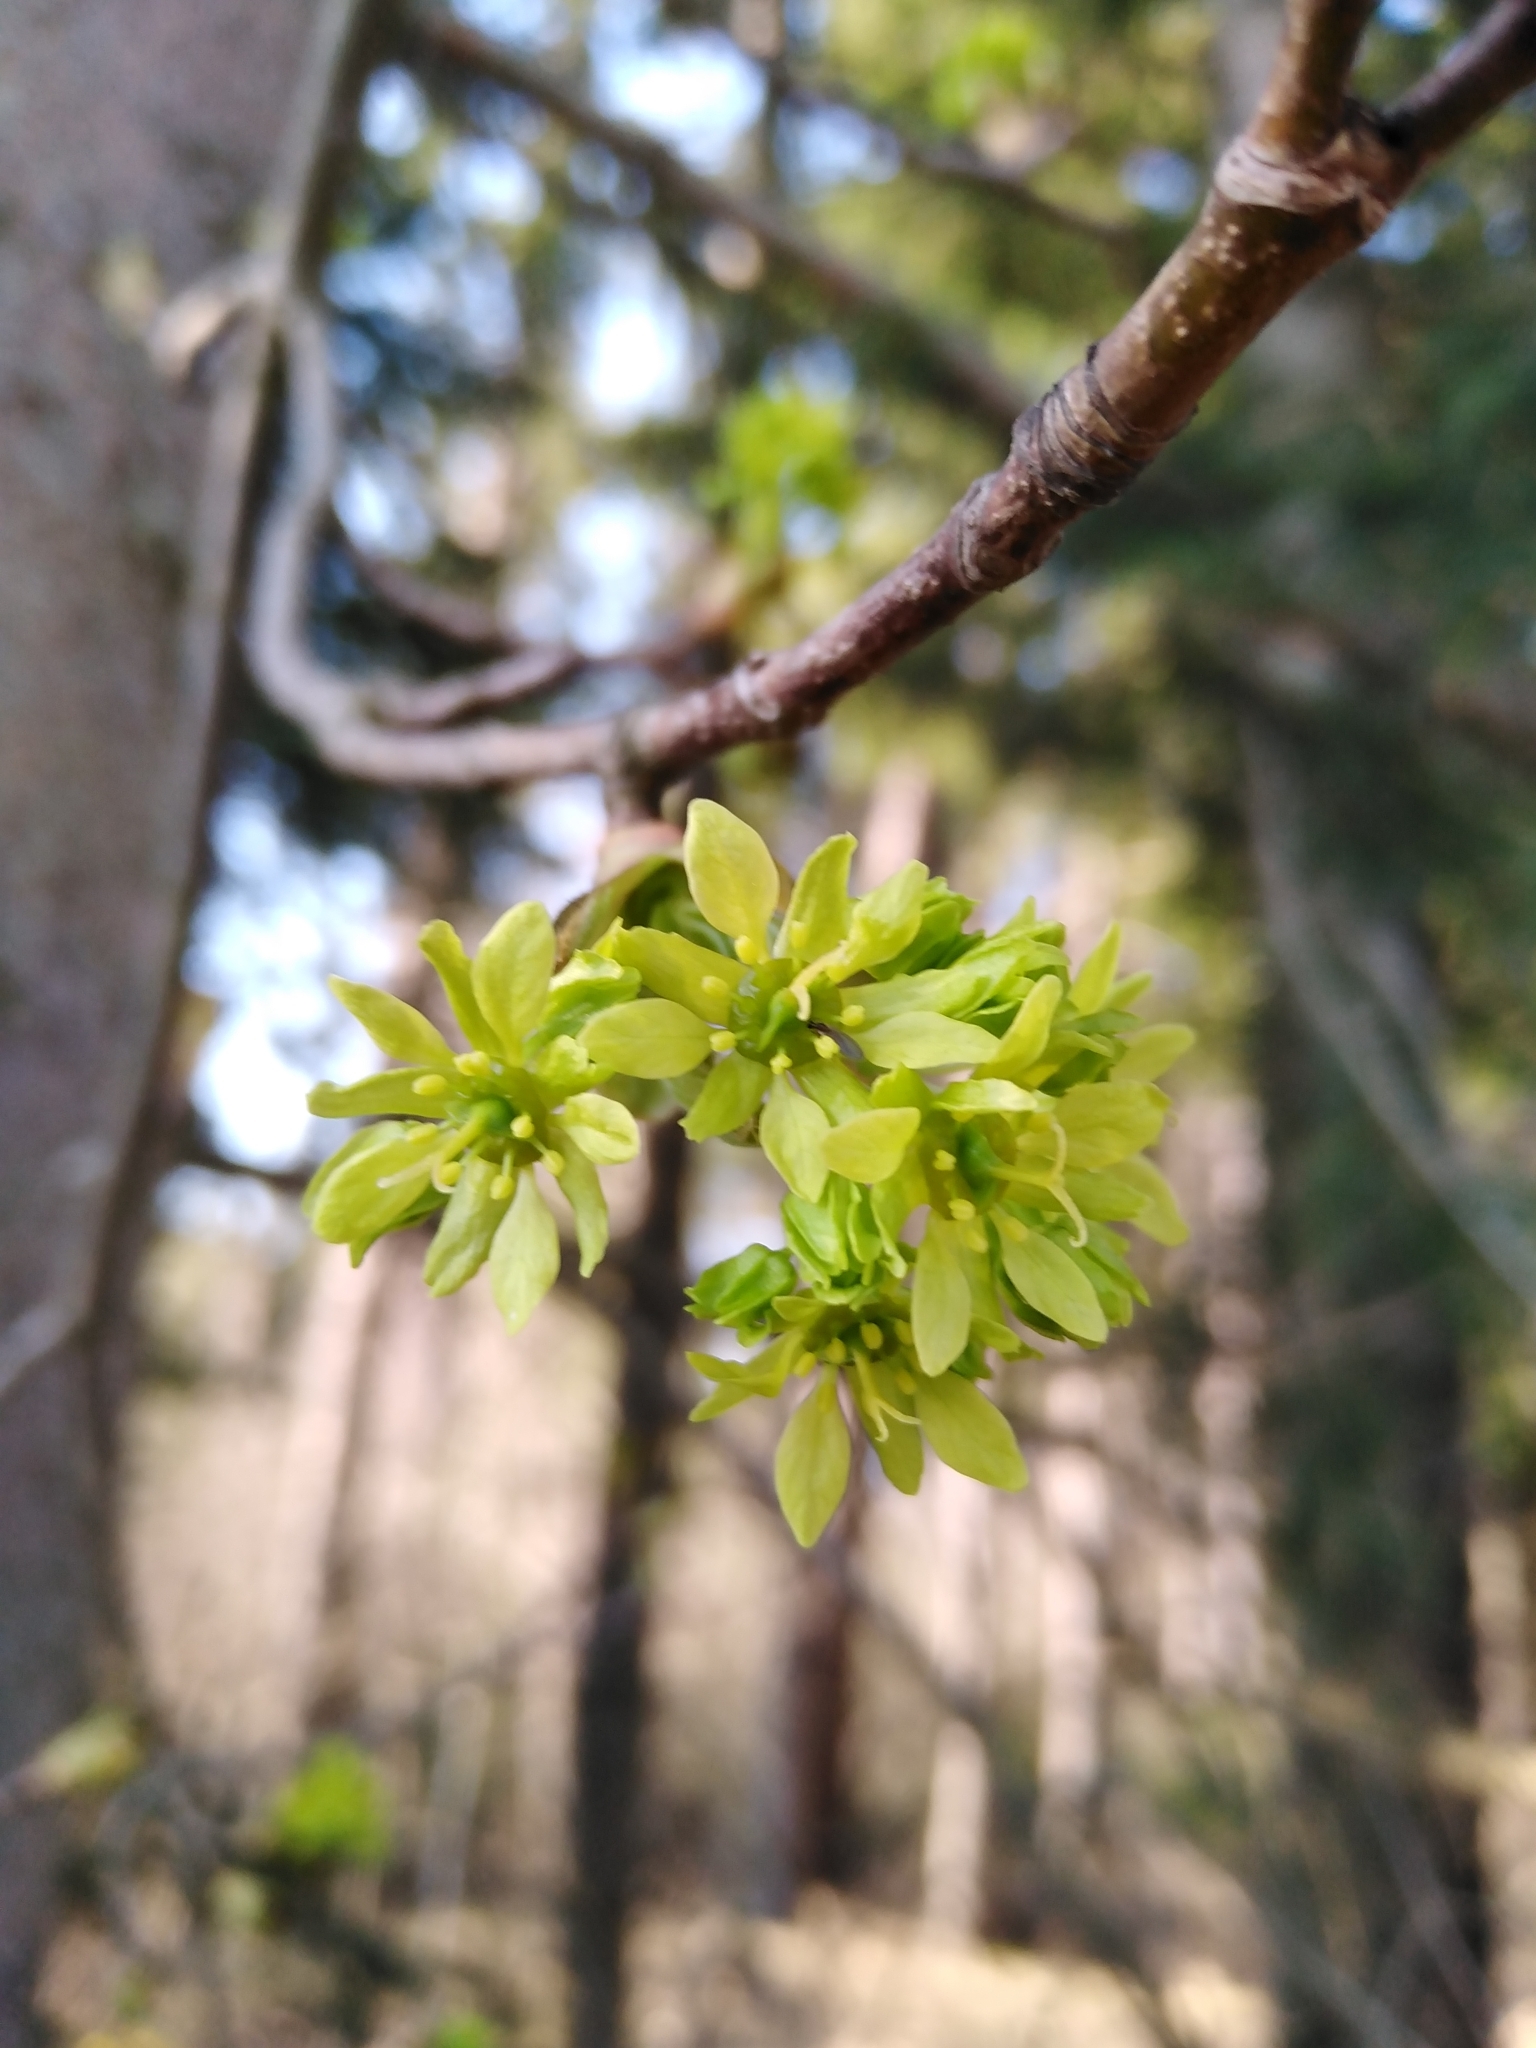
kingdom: Plantae
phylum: Tracheophyta
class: Magnoliopsida
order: Sapindales
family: Sapindaceae
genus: Acer
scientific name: Acer platanoides
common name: Norway maple
